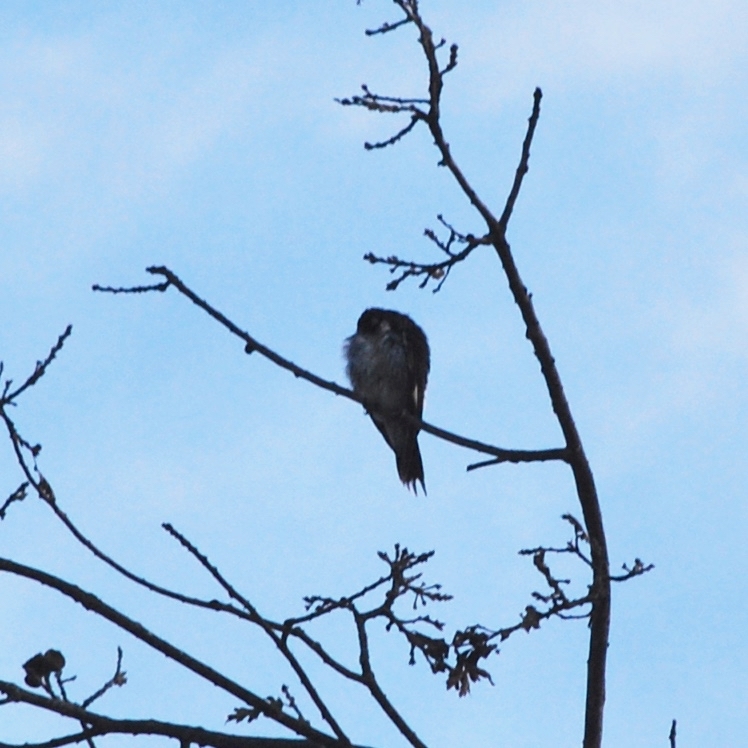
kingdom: Animalia
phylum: Chordata
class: Aves
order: Piciformes
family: Picidae
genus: Melanerpes
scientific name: Melanerpes formicivorus
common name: Acorn woodpecker
